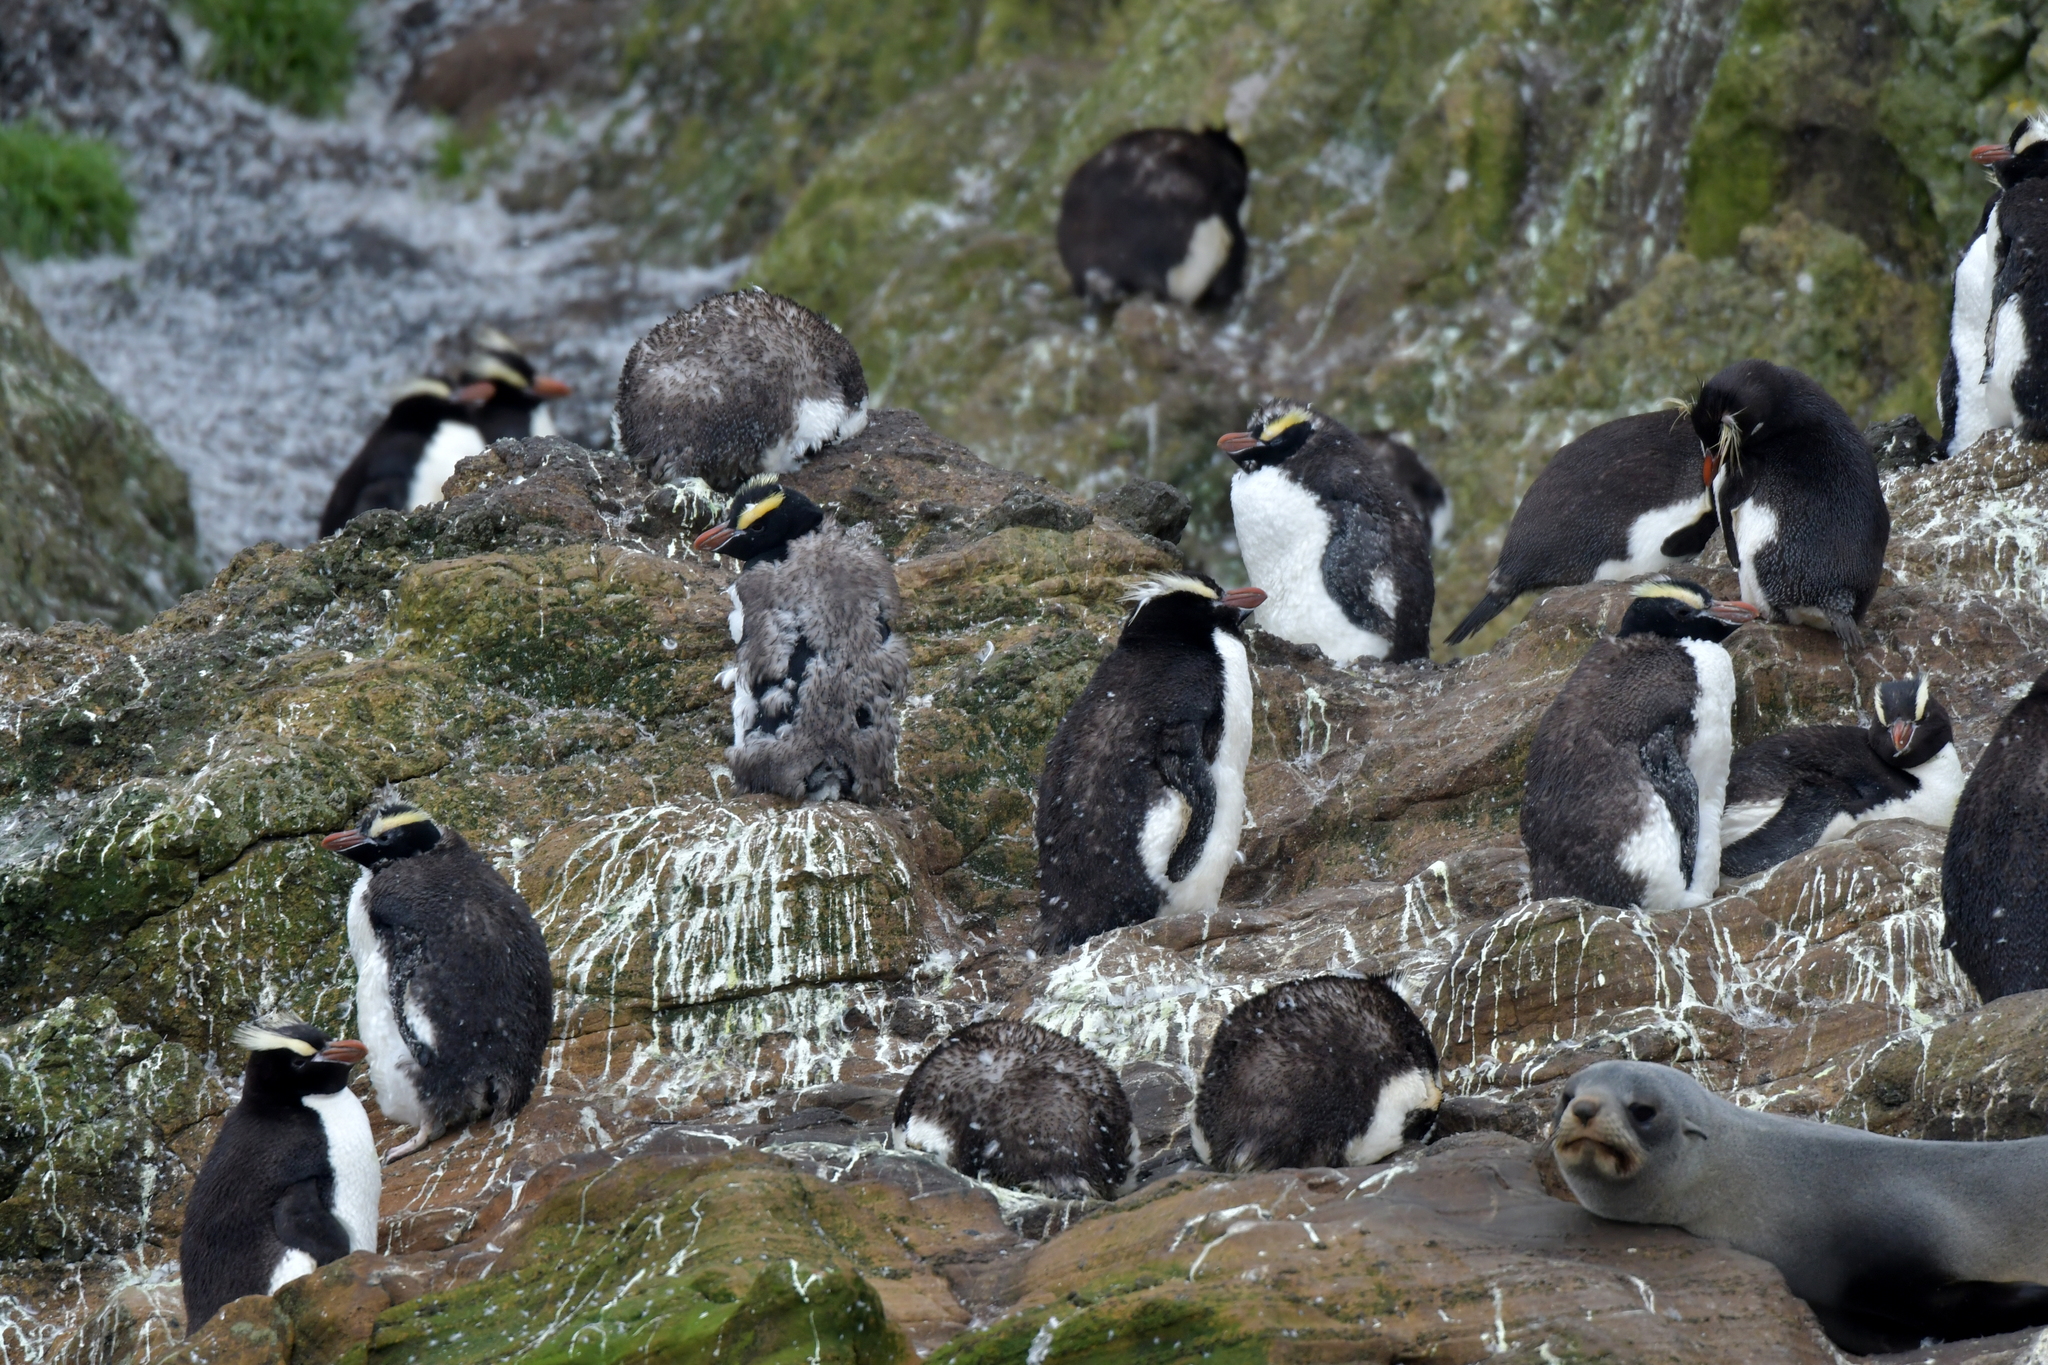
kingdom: Animalia
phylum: Chordata
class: Aves
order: Sphenisciformes
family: Spheniscidae
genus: Eudyptes
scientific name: Eudyptes filholi
